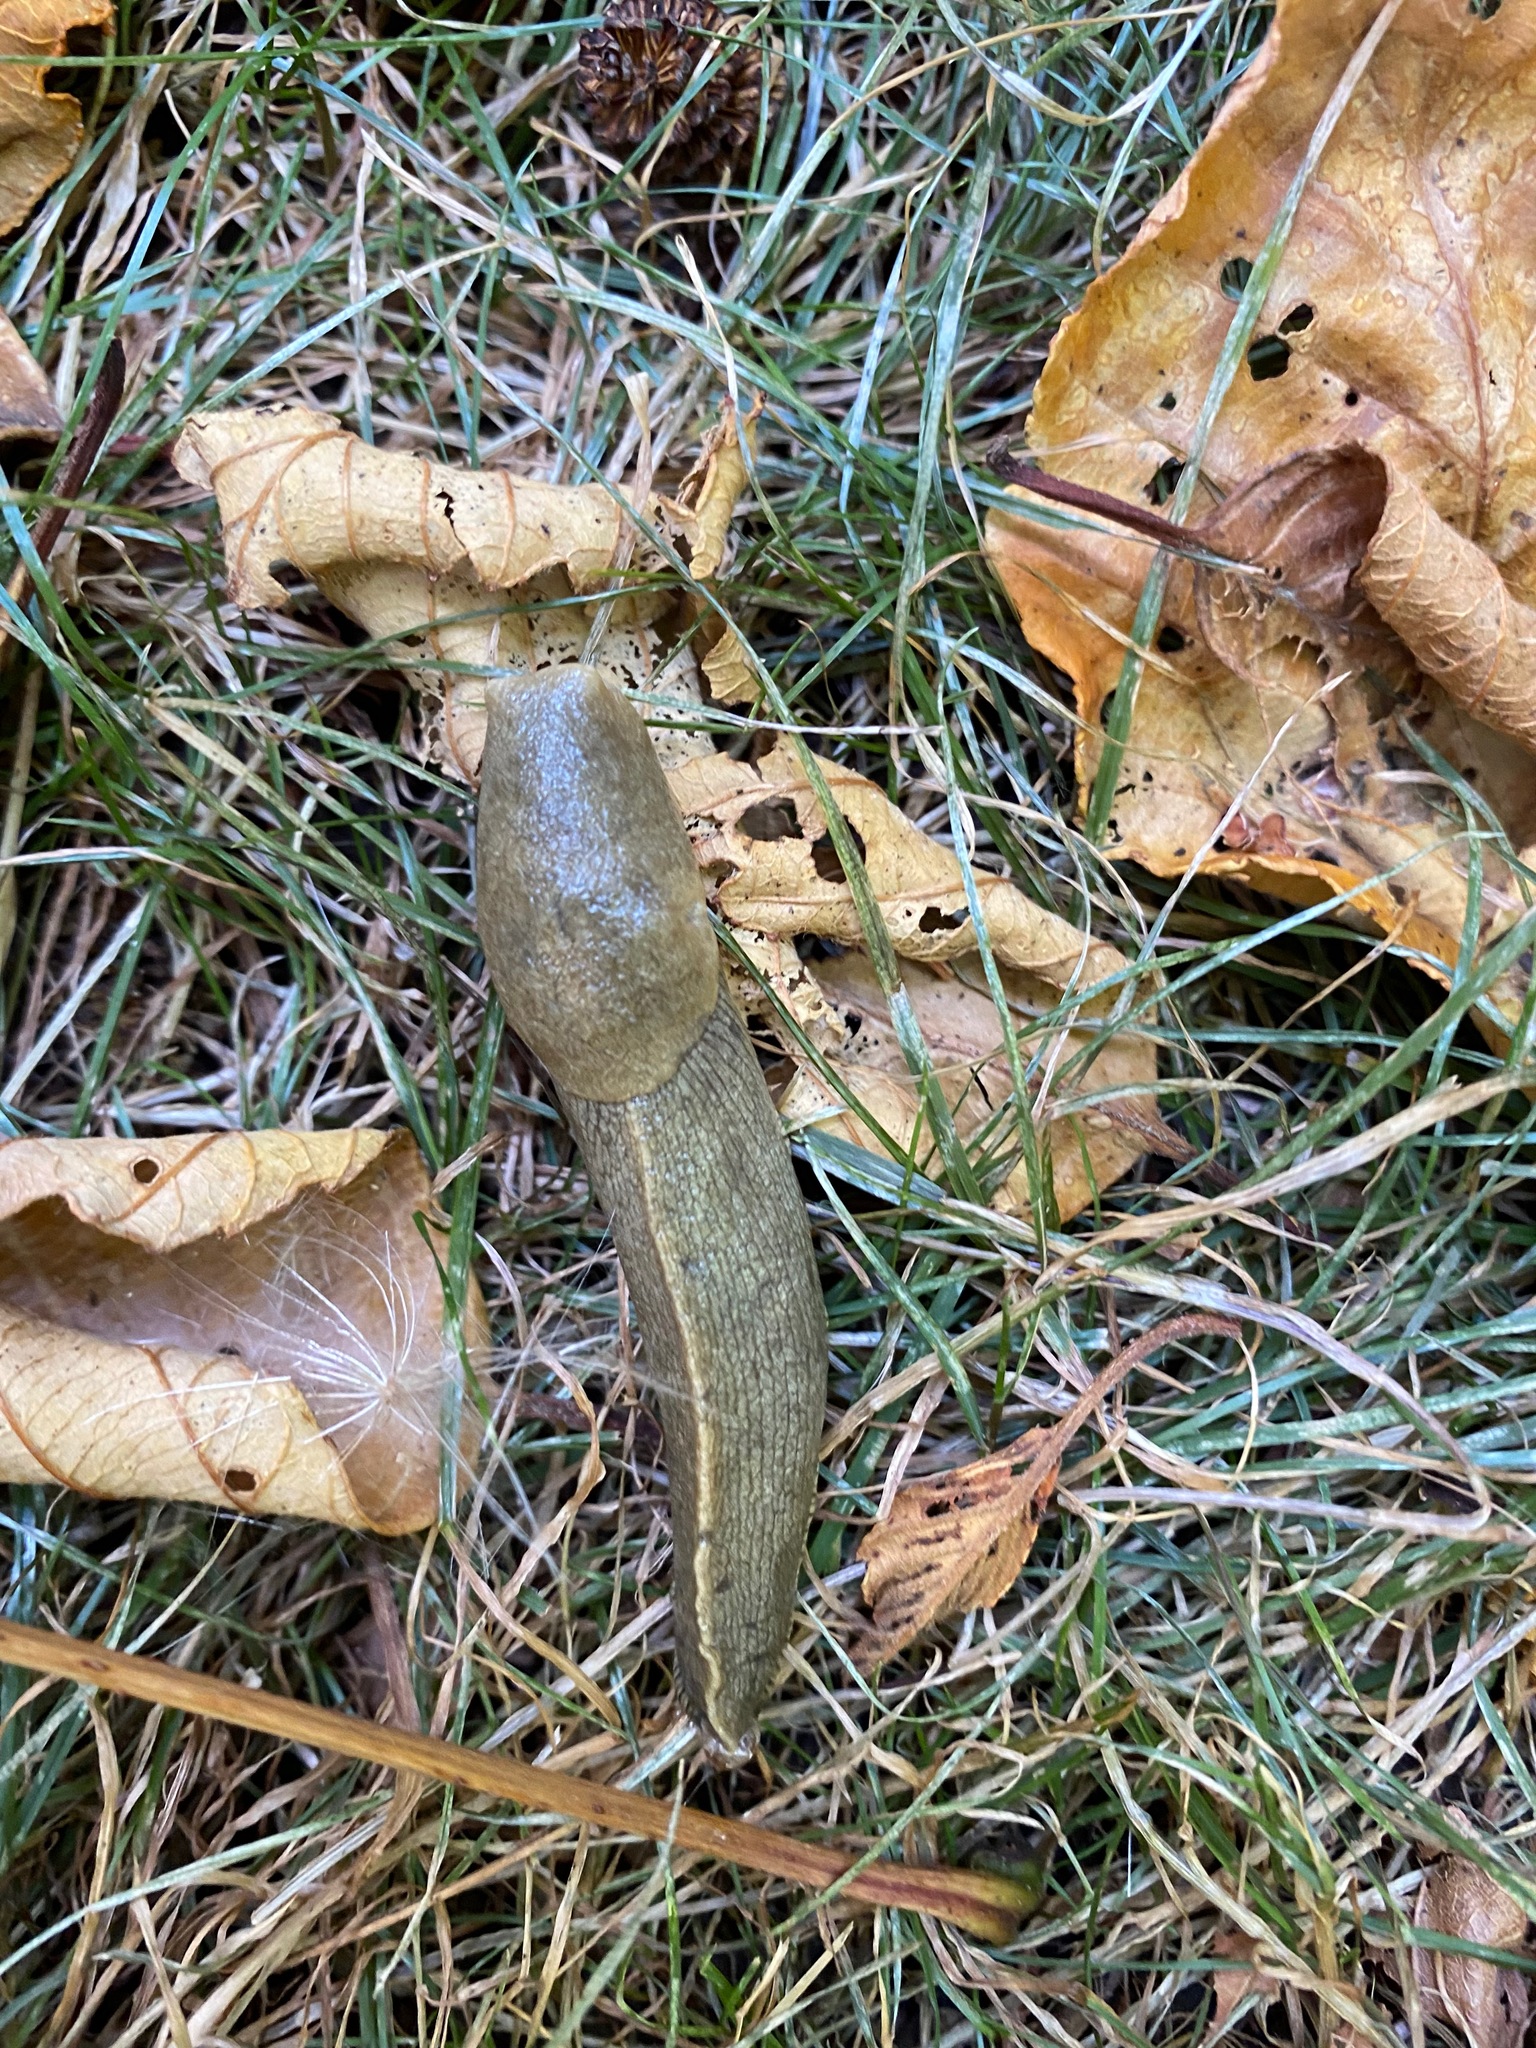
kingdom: Animalia
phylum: Mollusca
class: Gastropoda
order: Stylommatophora
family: Ariolimacidae
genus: Ariolimax
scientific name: Ariolimax columbianus
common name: Pacific banana slug
